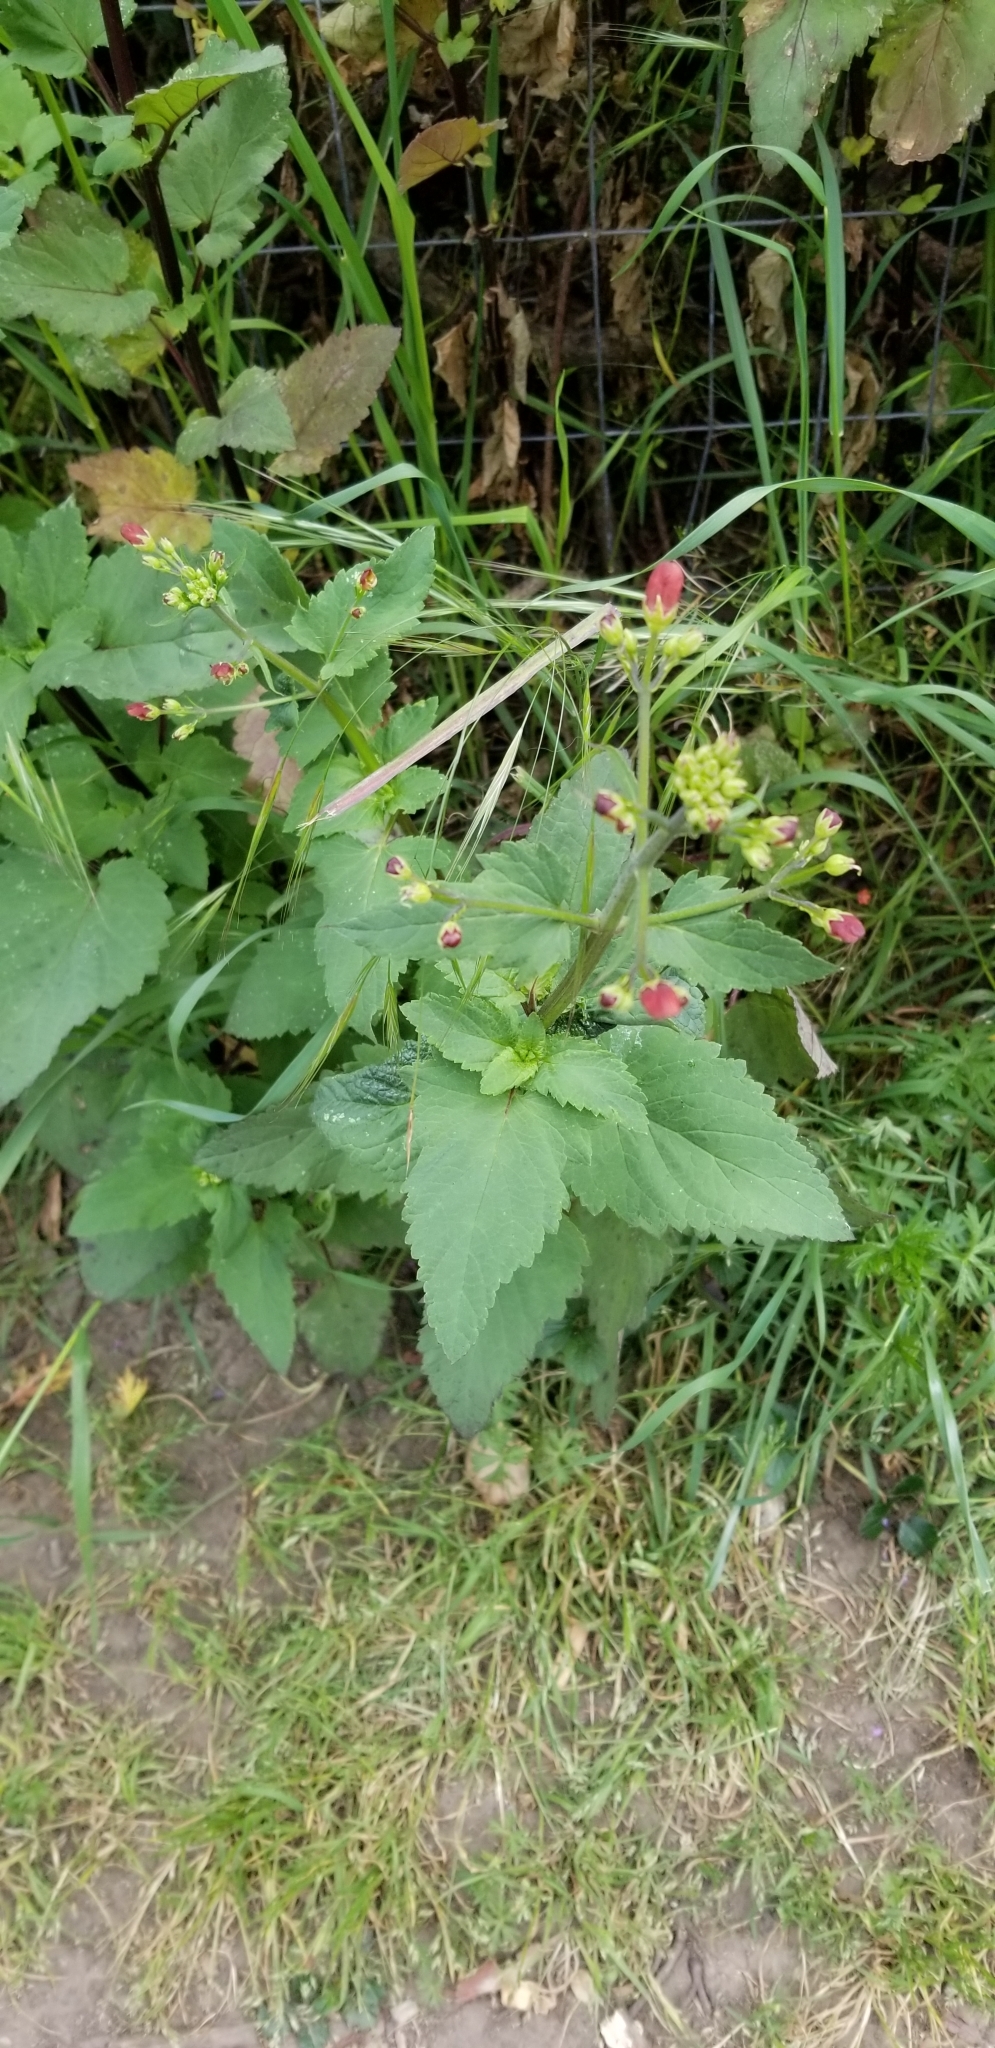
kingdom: Plantae
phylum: Tracheophyta
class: Magnoliopsida
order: Lamiales
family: Scrophulariaceae
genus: Scrophularia
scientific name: Scrophularia californica
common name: California figwort
